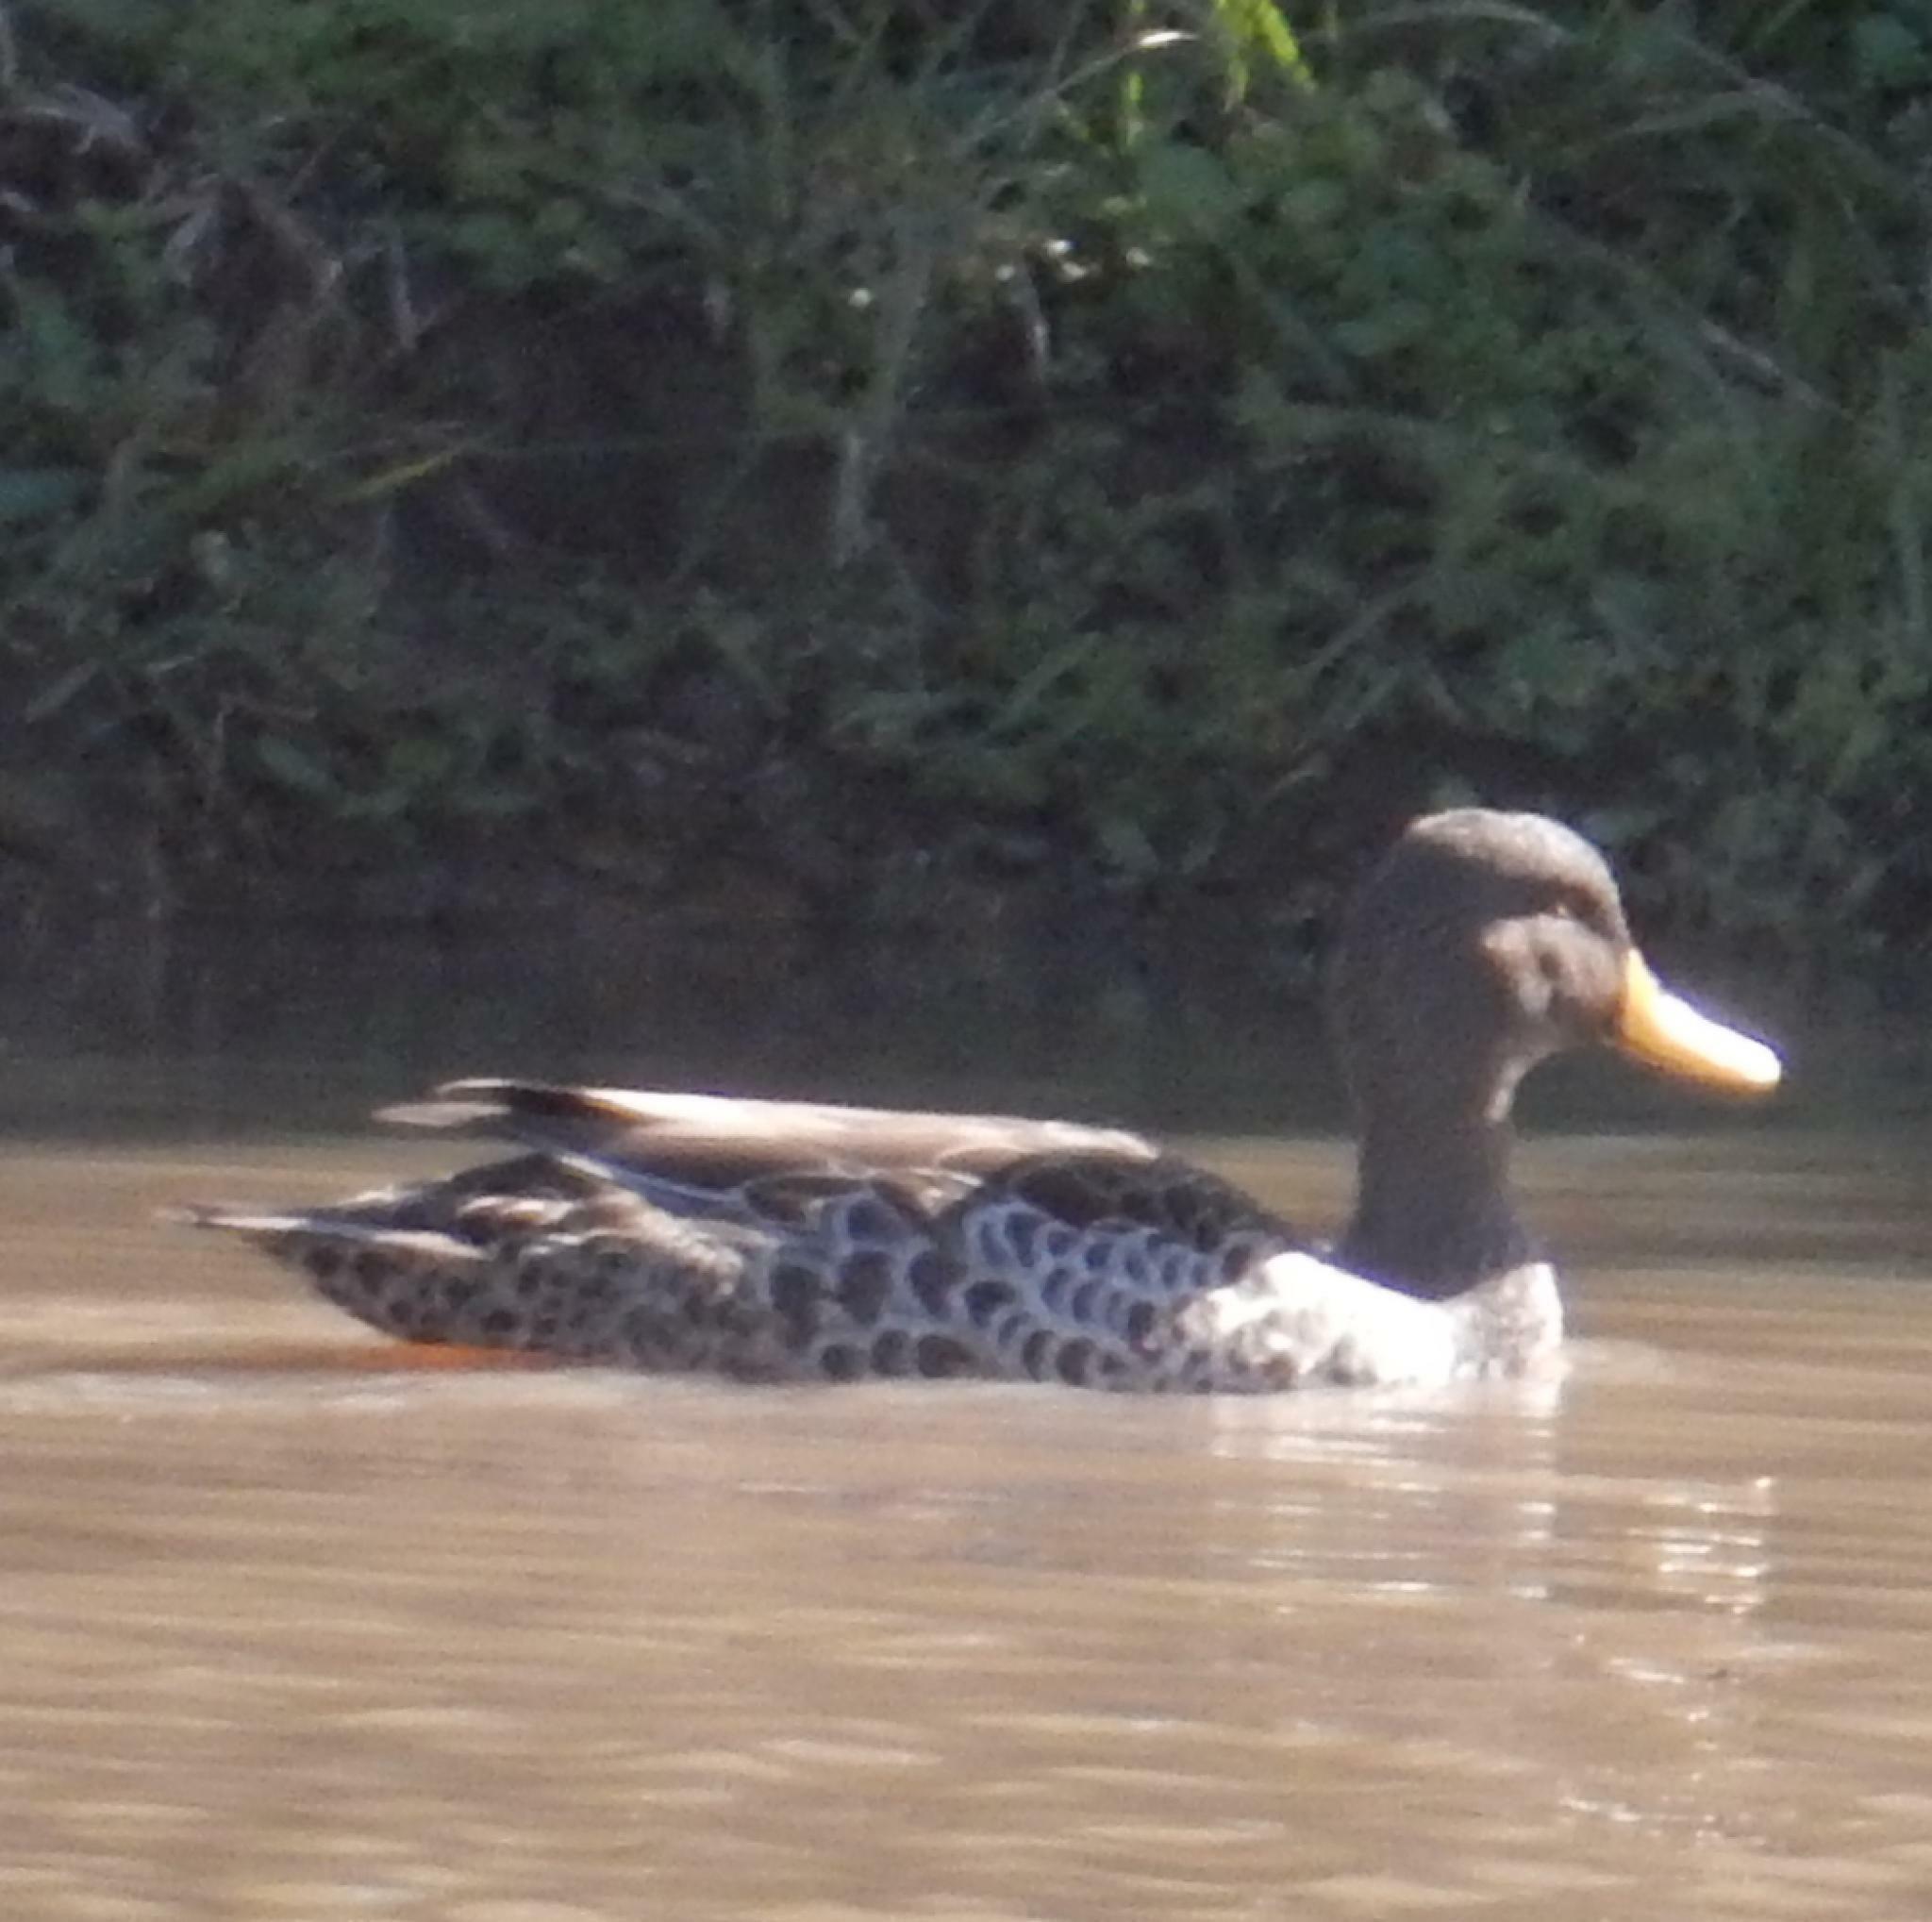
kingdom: Animalia
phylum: Chordata
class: Aves
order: Anseriformes
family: Anatidae
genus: Anas
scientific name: Anas undulata
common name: Yellow-billed duck
